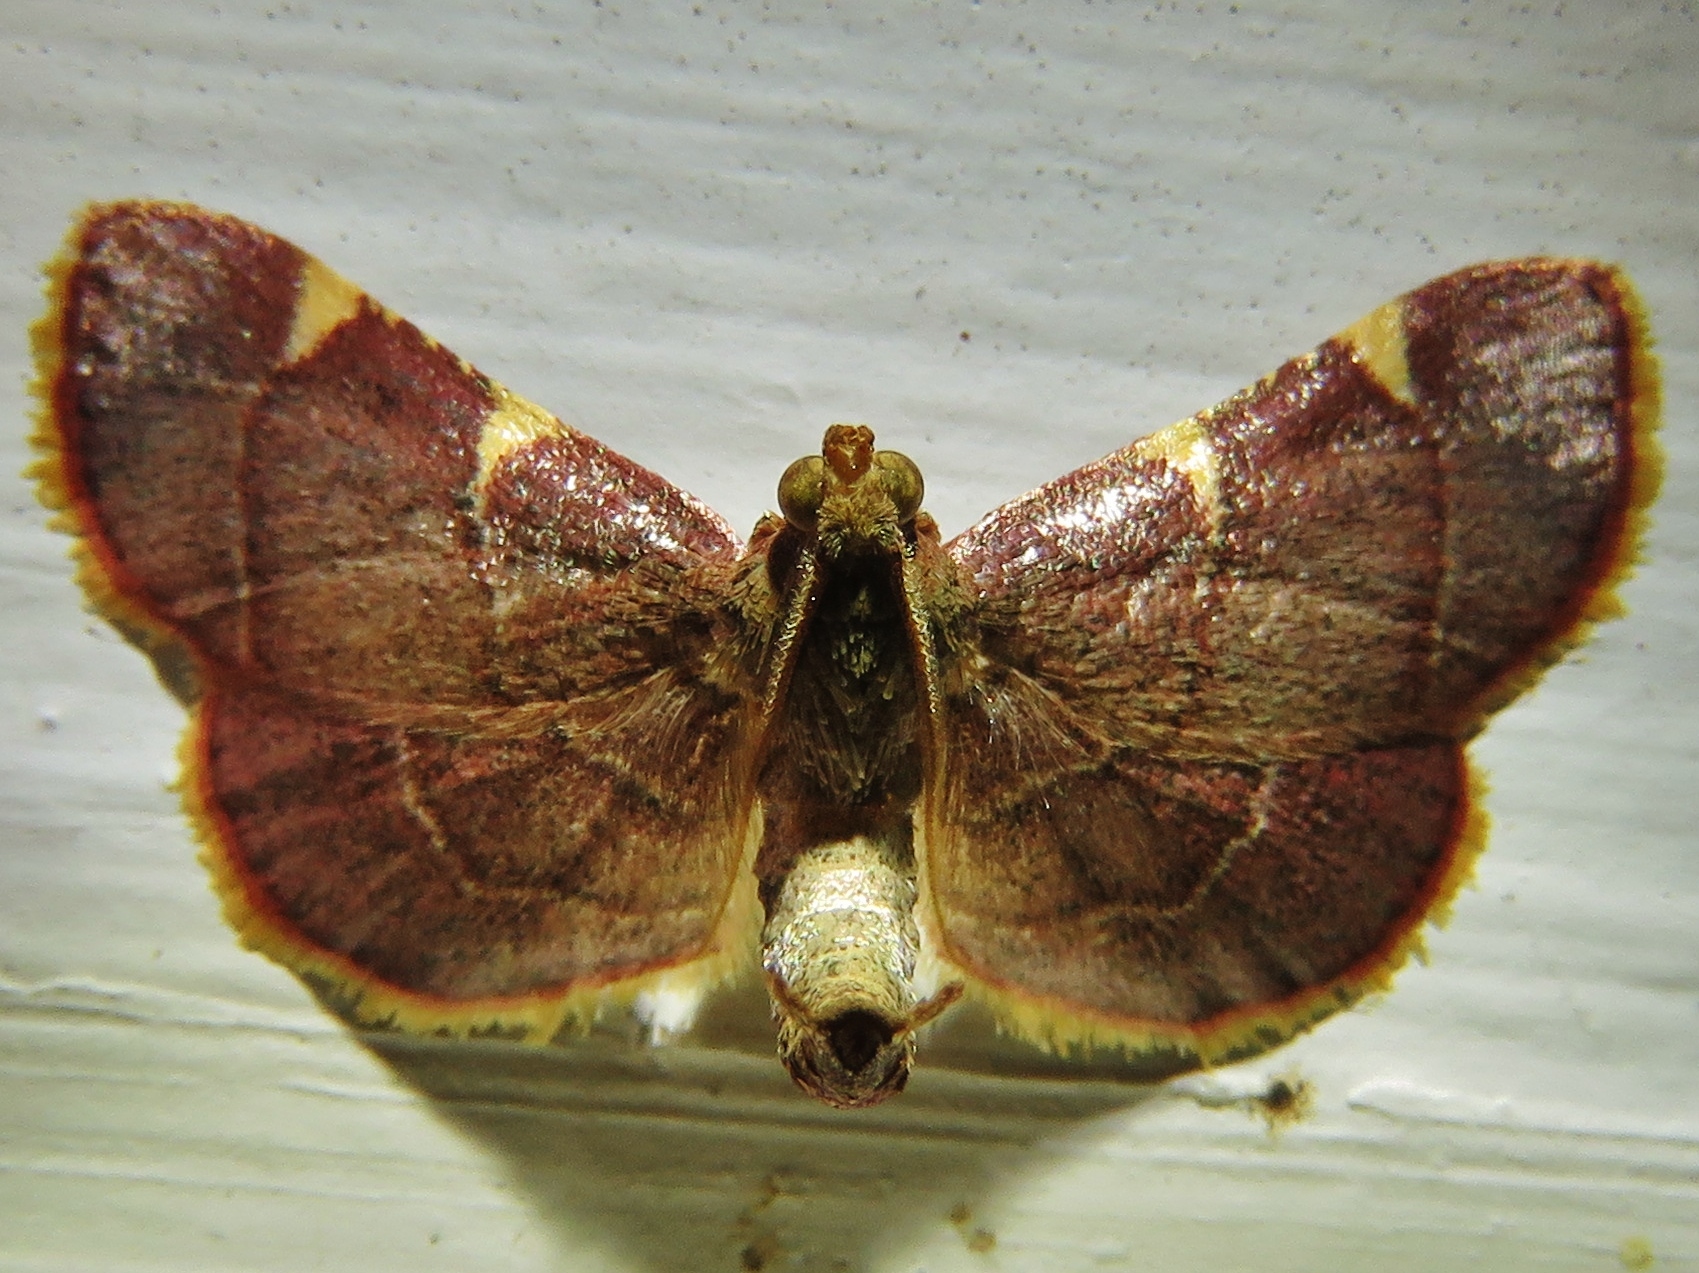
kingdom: Animalia
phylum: Arthropoda
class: Insecta
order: Lepidoptera
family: Pyralidae
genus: Hypsopygia
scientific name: Hypsopygia olinalis
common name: Yellow-fringed dolichomia moth
